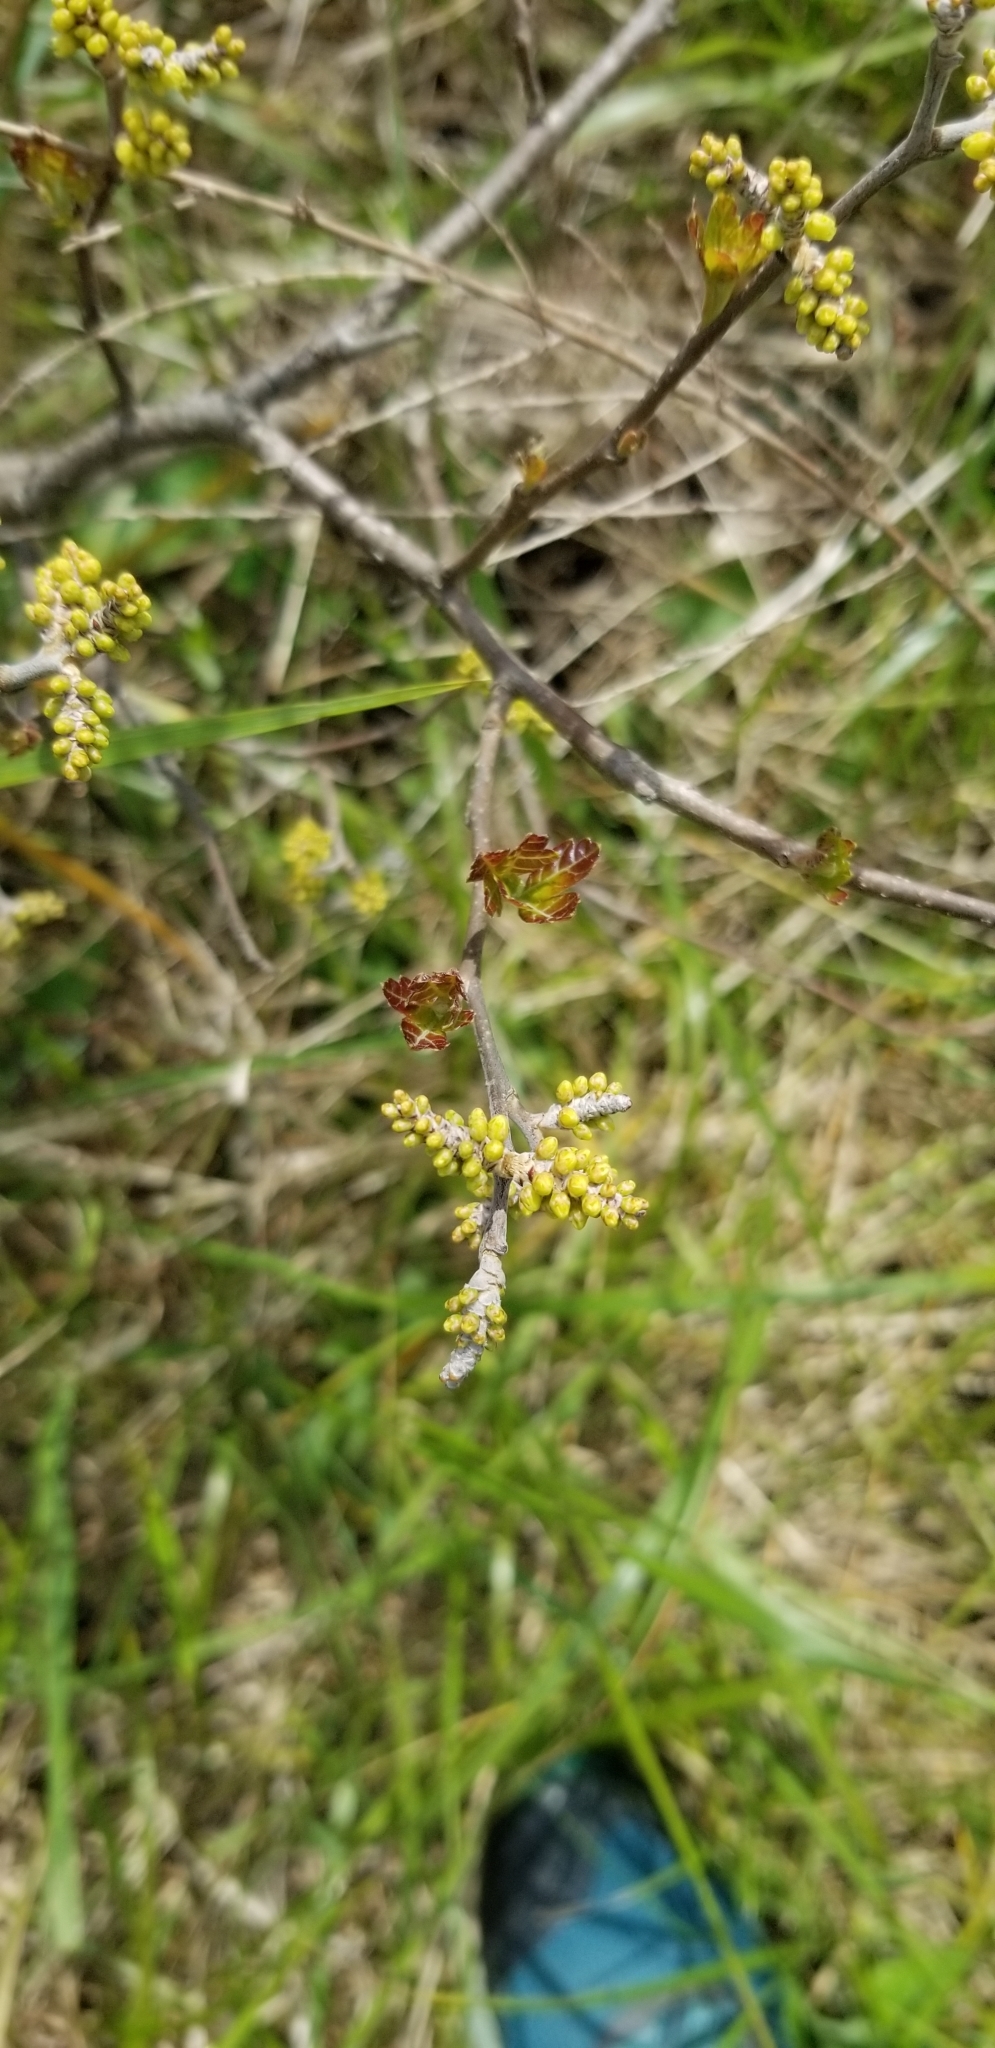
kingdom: Plantae
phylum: Tracheophyta
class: Magnoliopsida
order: Sapindales
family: Anacardiaceae
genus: Rhus
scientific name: Rhus aromatica
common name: Aromatic sumac
